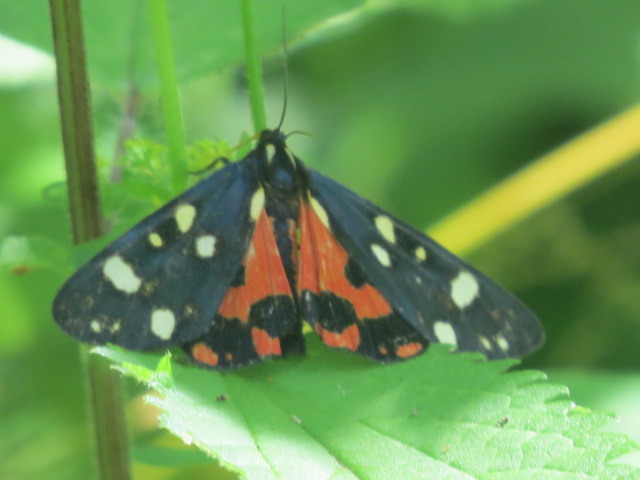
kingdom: Animalia
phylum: Arthropoda
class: Insecta
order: Lepidoptera
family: Erebidae
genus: Callimorpha
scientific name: Callimorpha dominula
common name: Scarlet tiger
